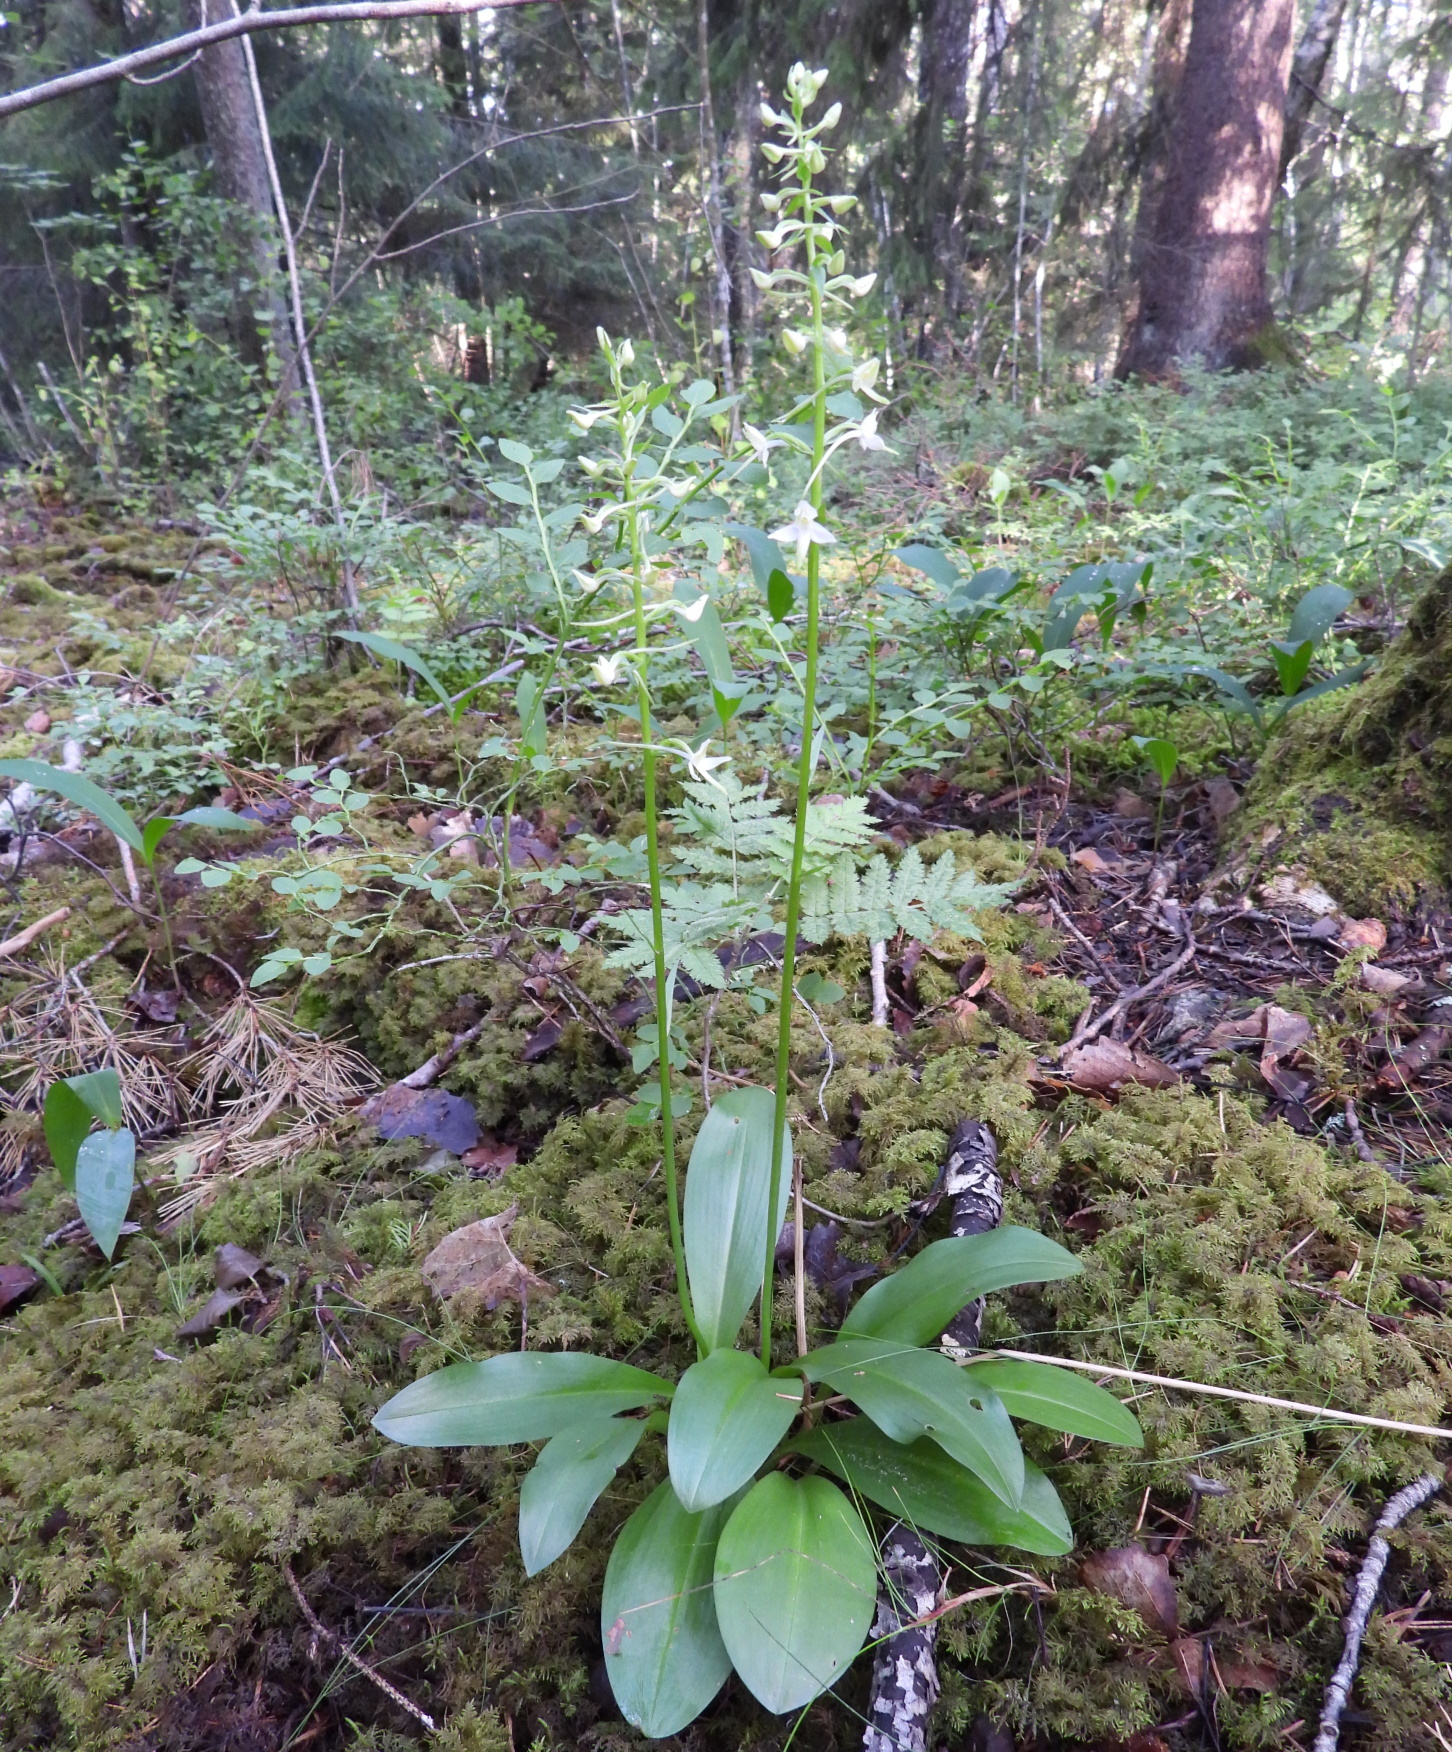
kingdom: Plantae
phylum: Tracheophyta
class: Liliopsida
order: Asparagales
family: Orchidaceae
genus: Platanthera
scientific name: Platanthera bifolia
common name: Lesser butterfly-orchid
